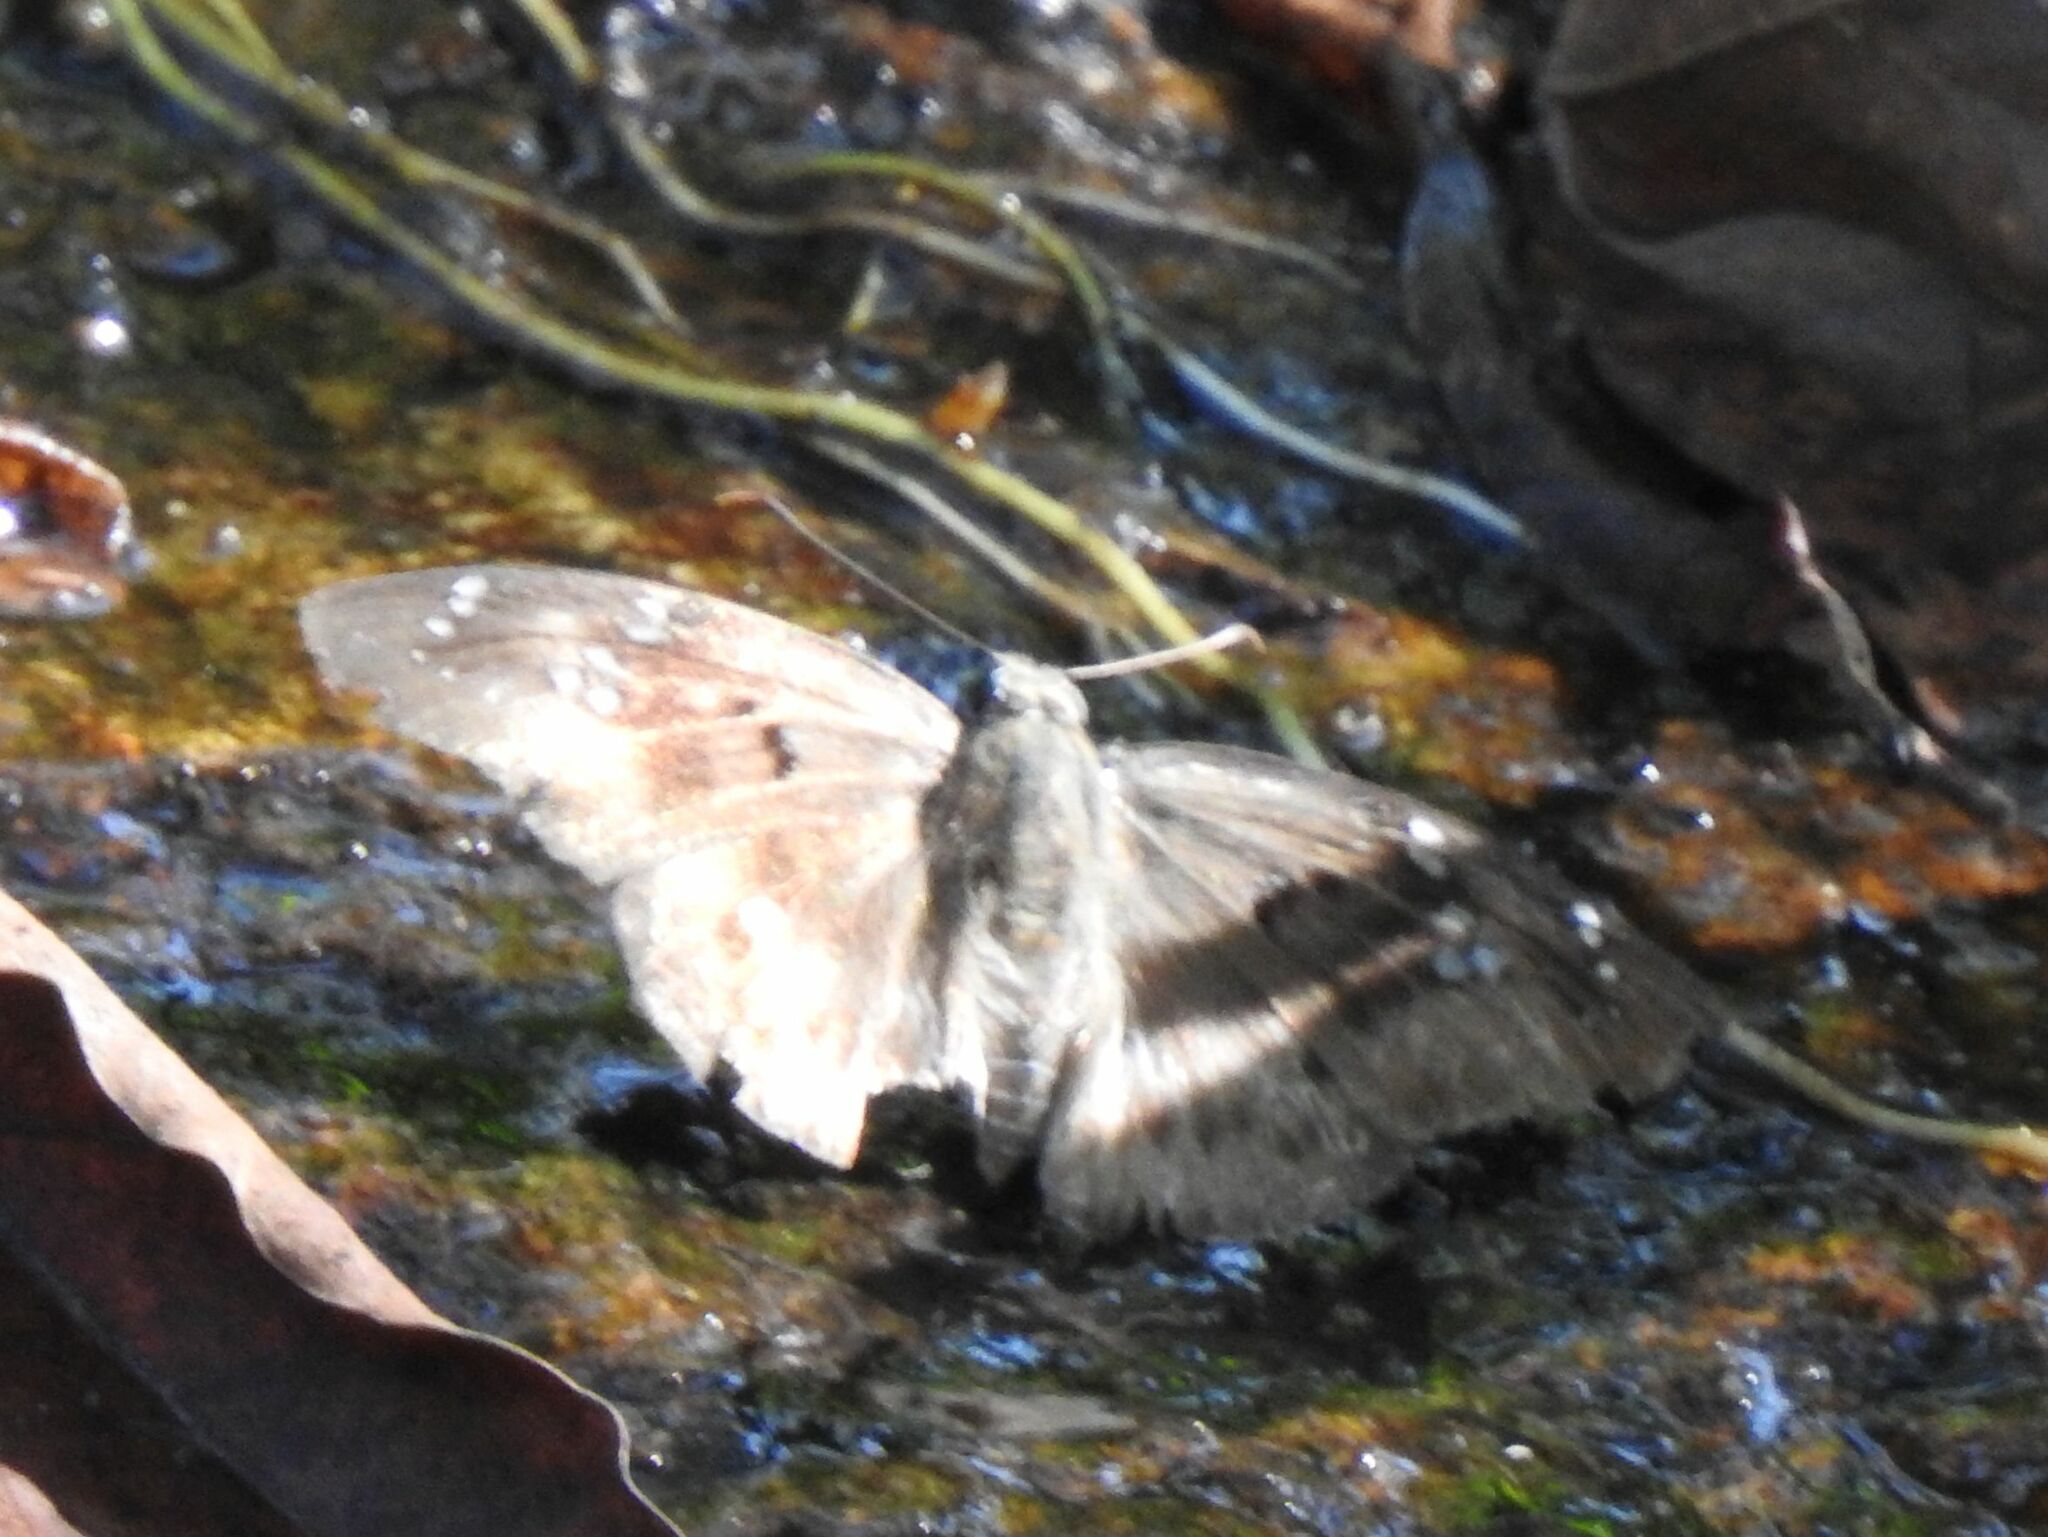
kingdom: Animalia
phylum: Arthropoda
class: Insecta
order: Lepidoptera
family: Hesperiidae
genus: Tagiades
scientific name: Tagiades flesus
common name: Clouded flat
